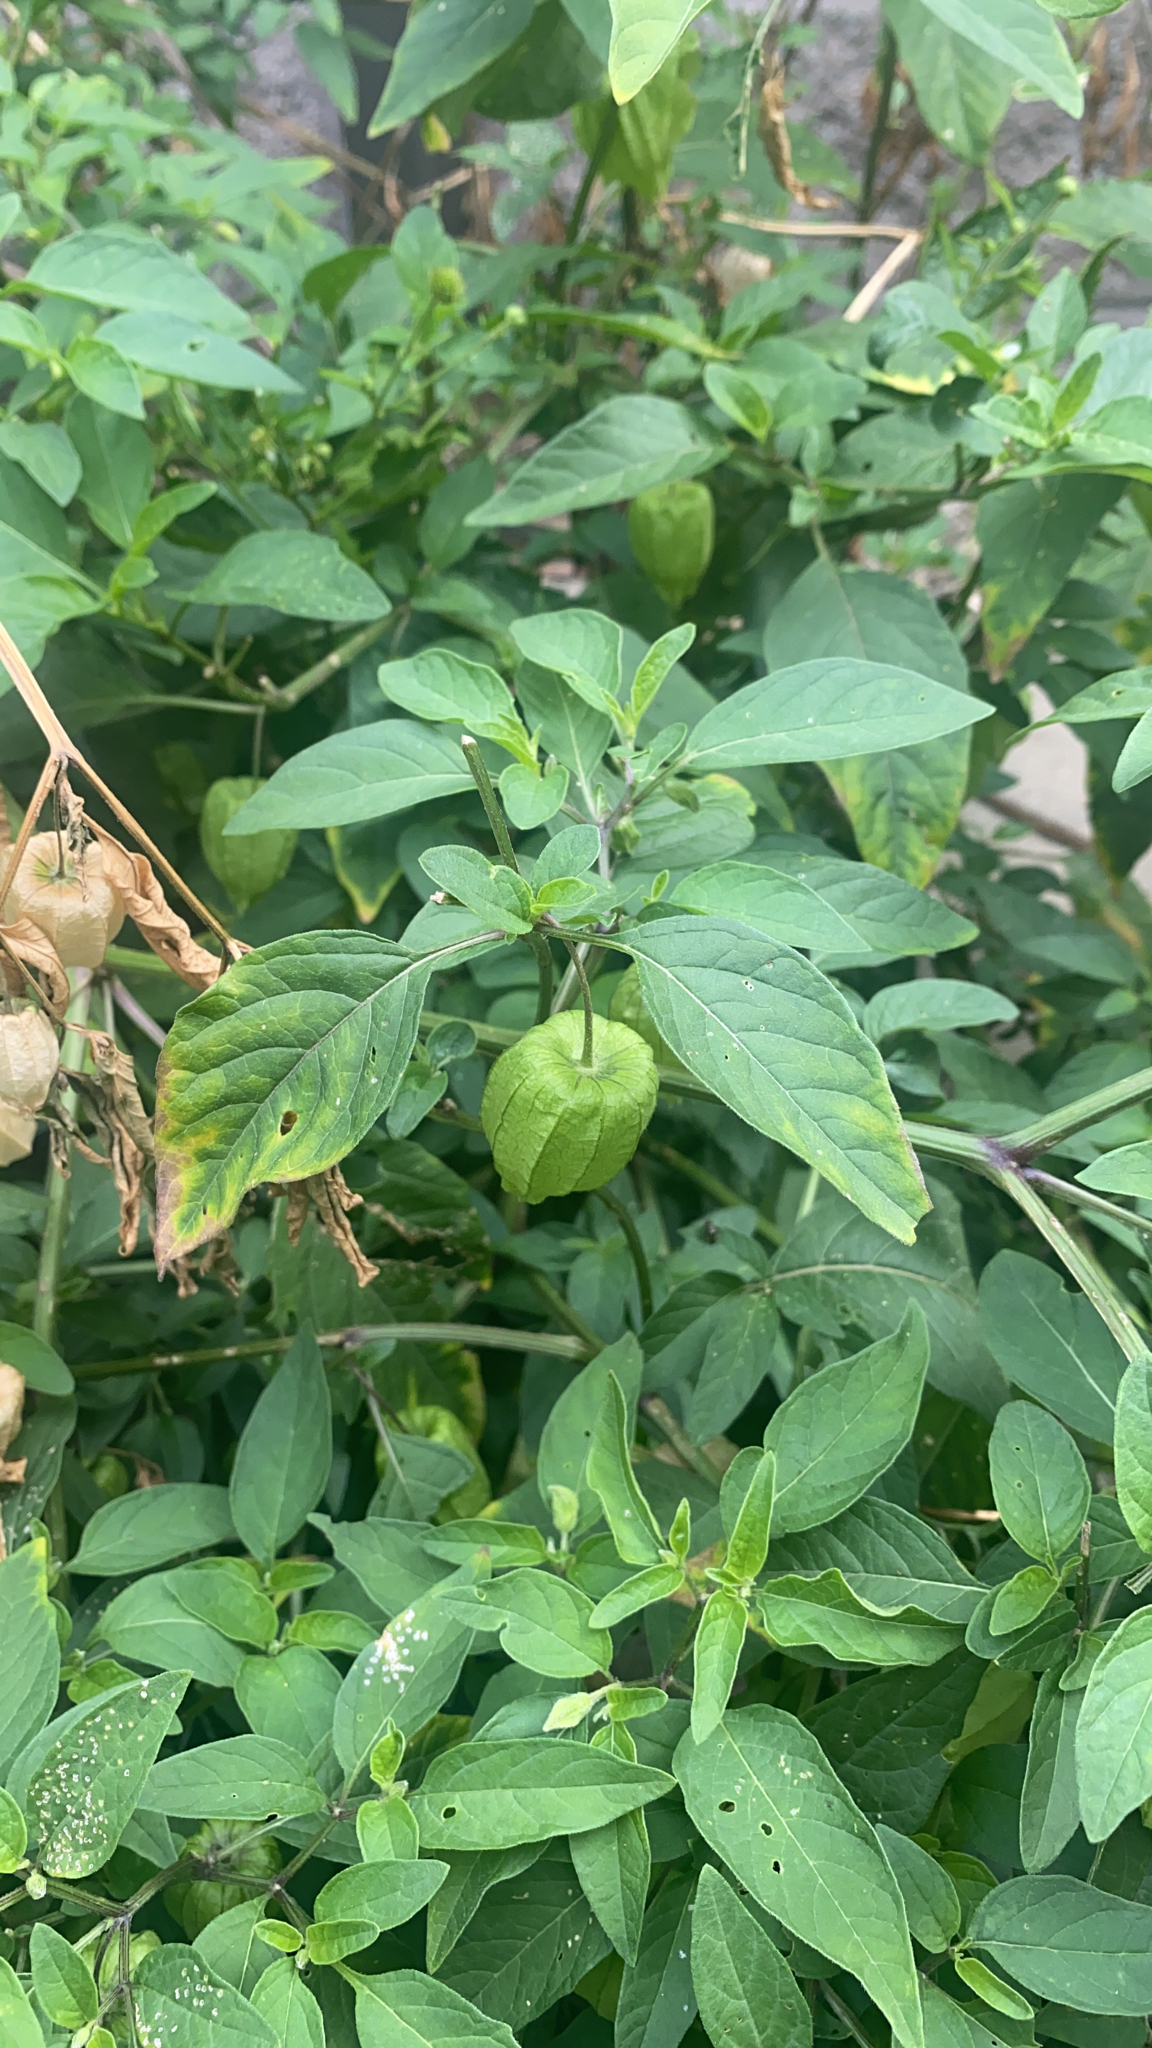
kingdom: Plantae
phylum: Tracheophyta
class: Magnoliopsida
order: Solanales
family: Solanaceae
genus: Physalis
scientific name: Physalis longifolia
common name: Common ground-cherry
